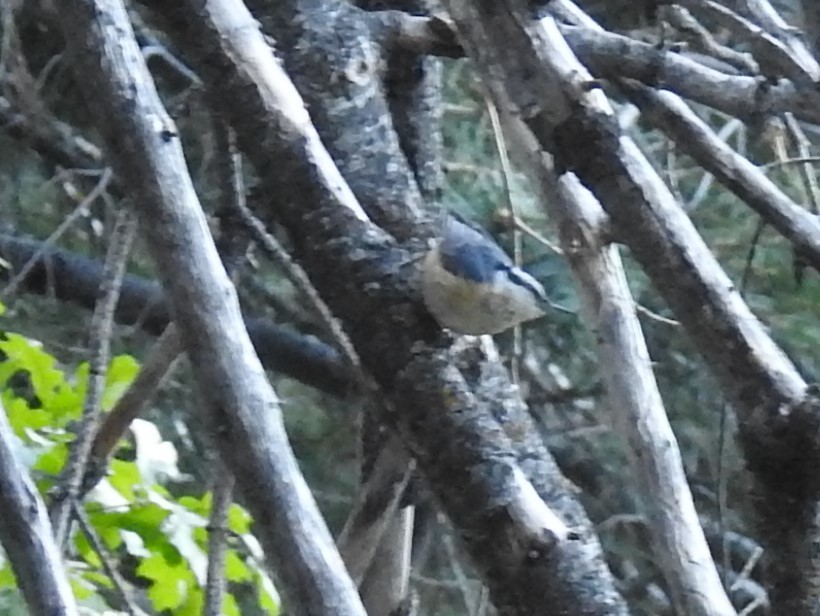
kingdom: Animalia
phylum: Chordata
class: Aves
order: Passeriformes
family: Sittidae
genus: Sitta
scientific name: Sitta canadensis
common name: Red-breasted nuthatch
